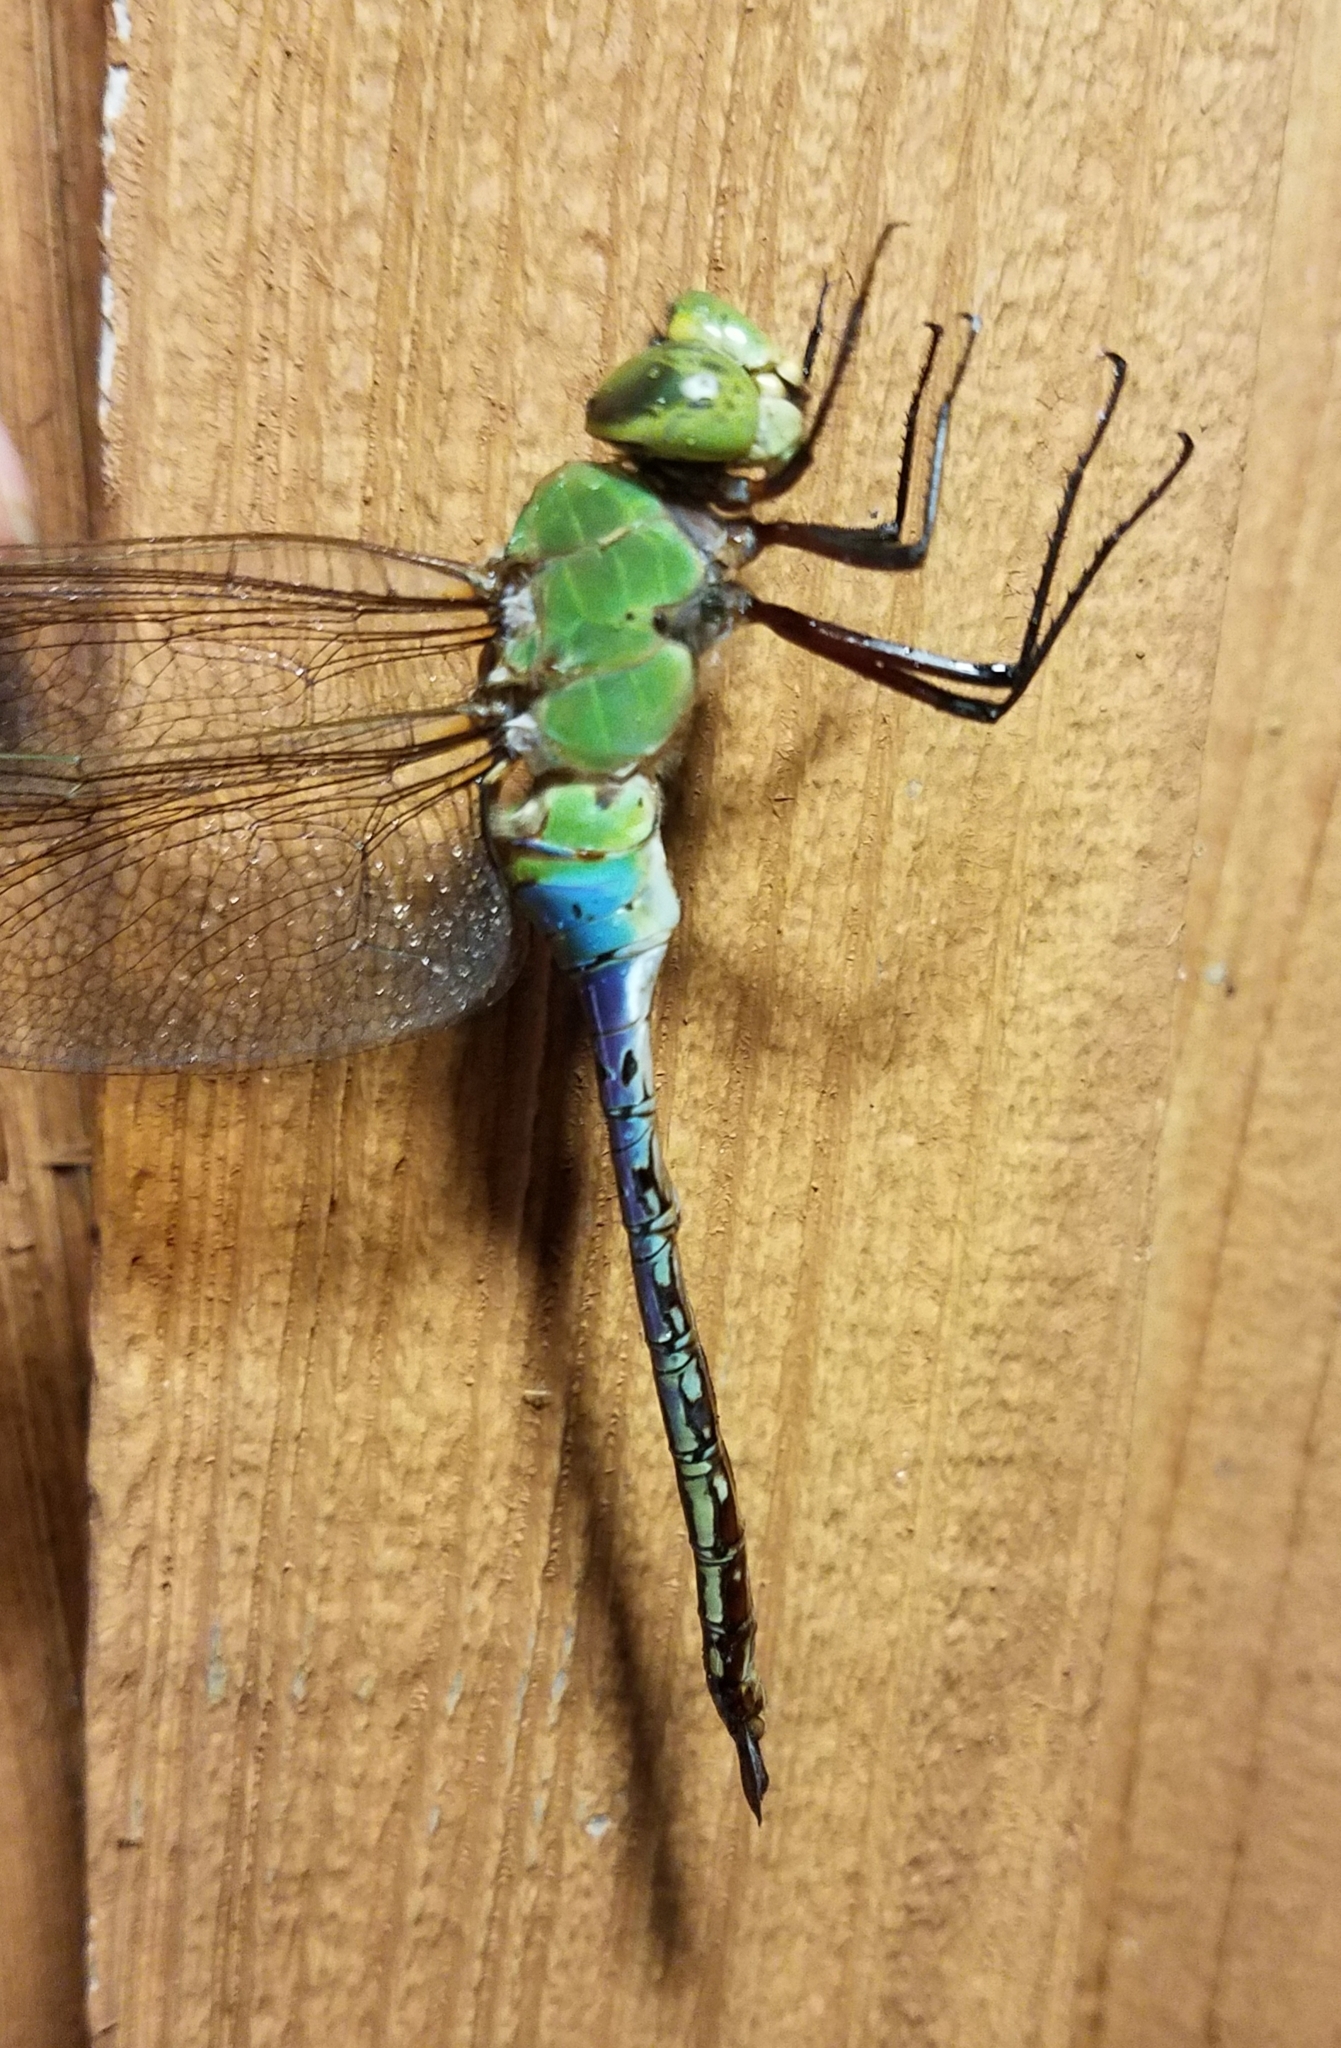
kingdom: Animalia
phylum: Arthropoda
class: Insecta
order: Odonata
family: Aeshnidae
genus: Anax
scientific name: Anax junius
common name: Common green darner
